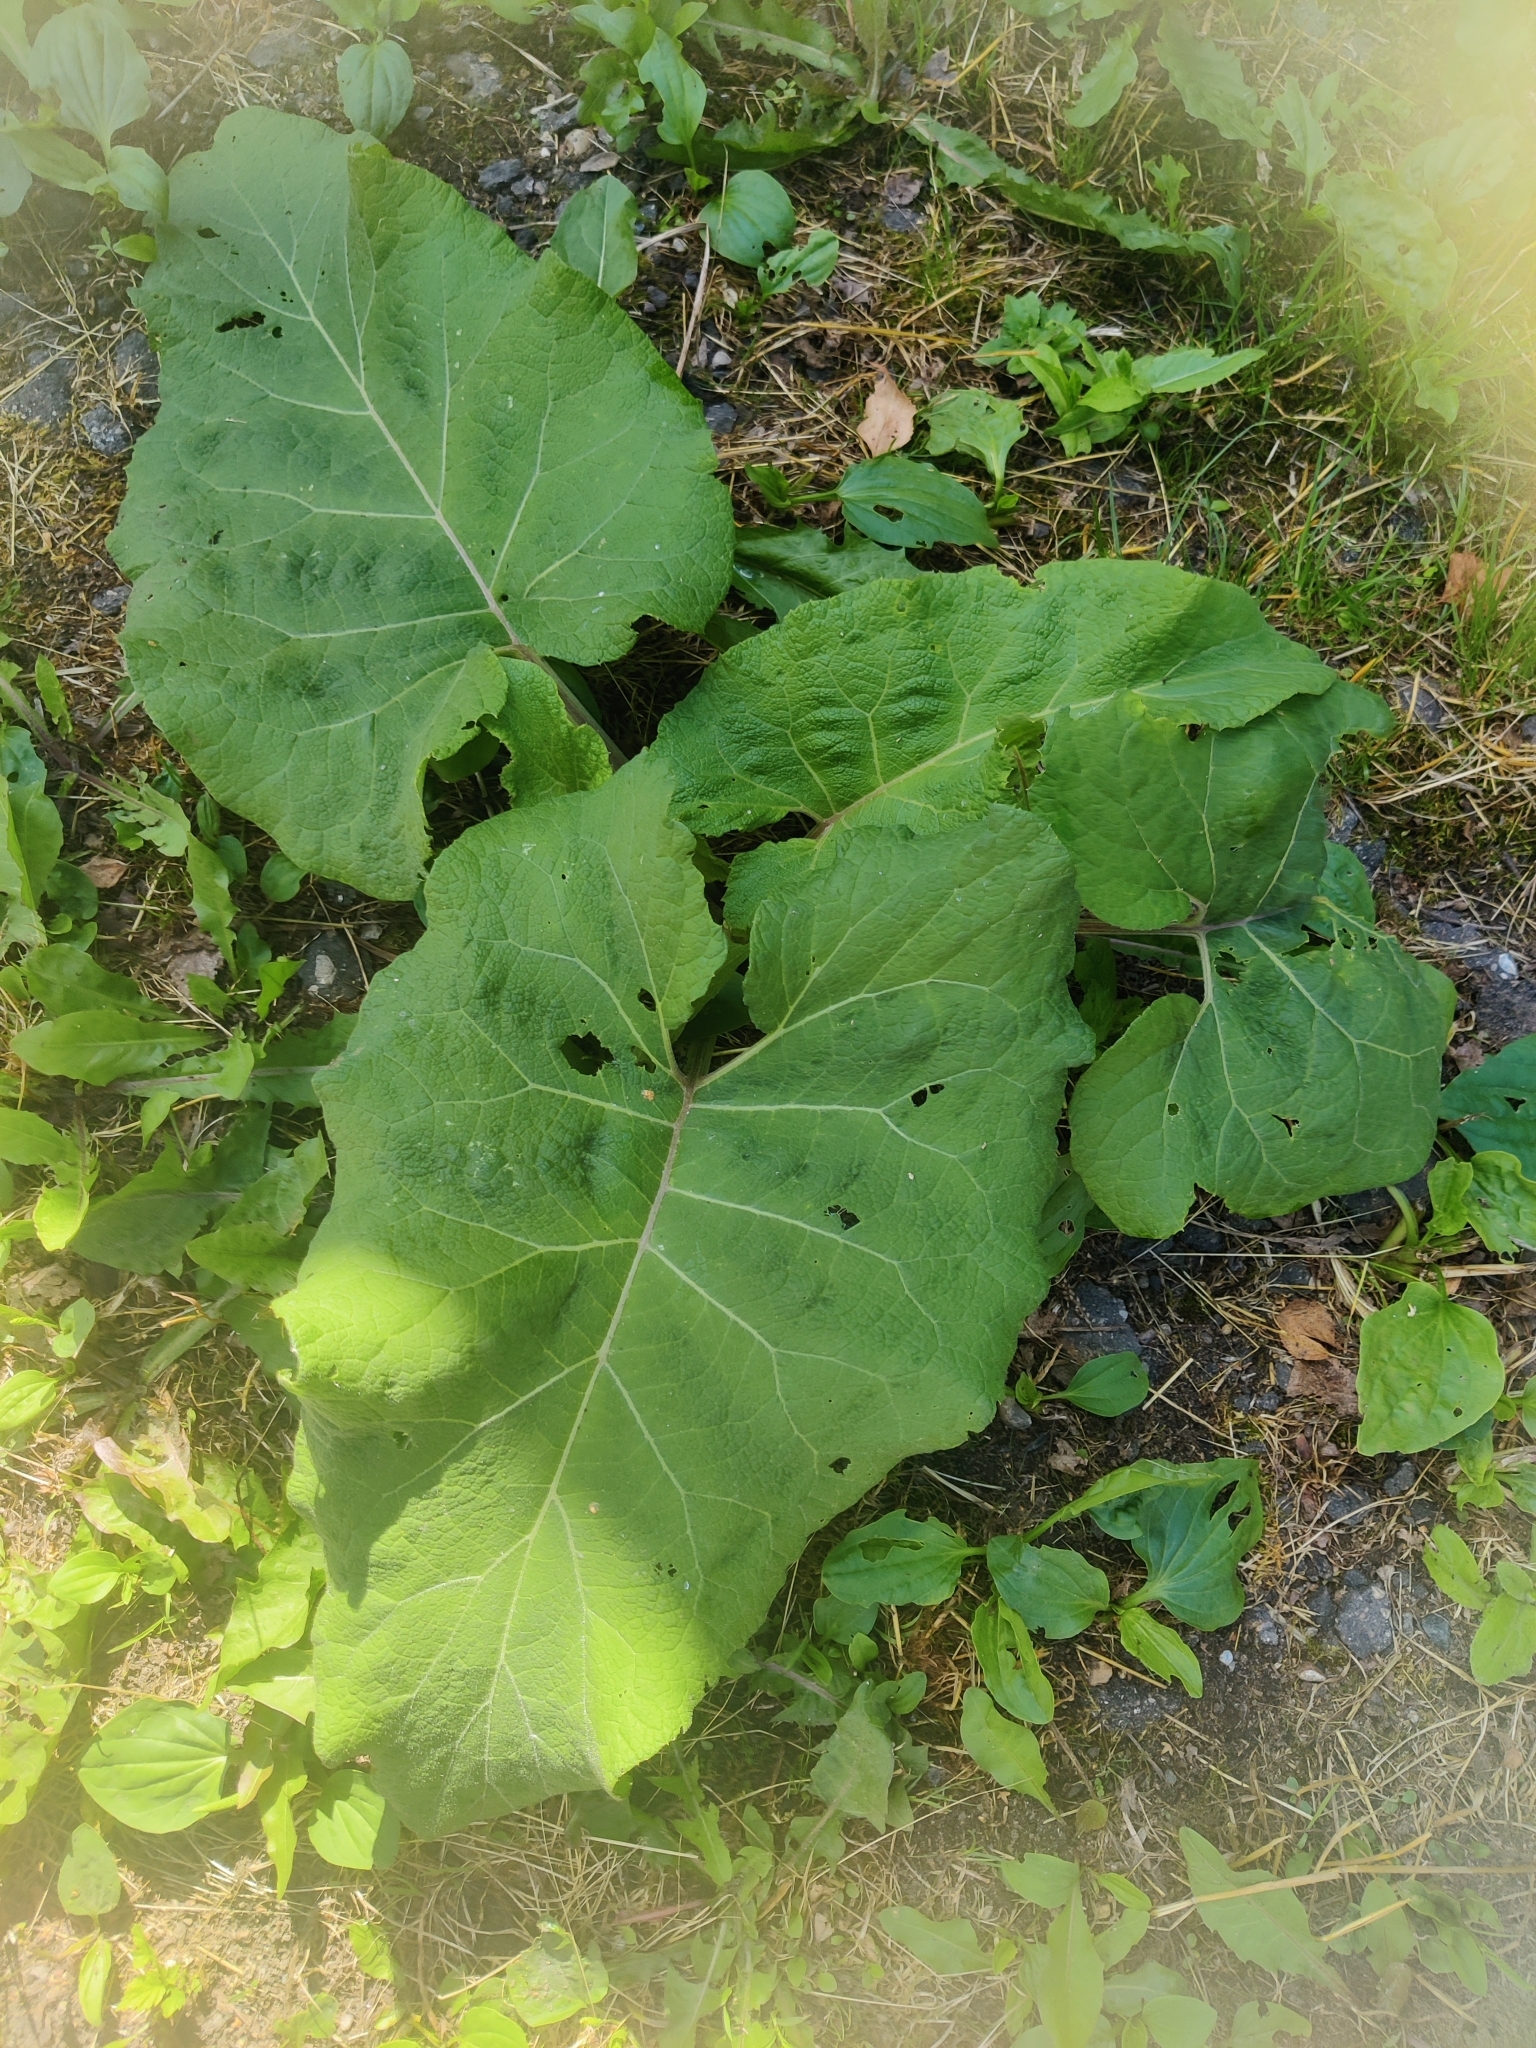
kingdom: Plantae
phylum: Tracheophyta
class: Magnoliopsida
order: Asterales
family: Asteraceae
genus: Arctium
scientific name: Arctium
